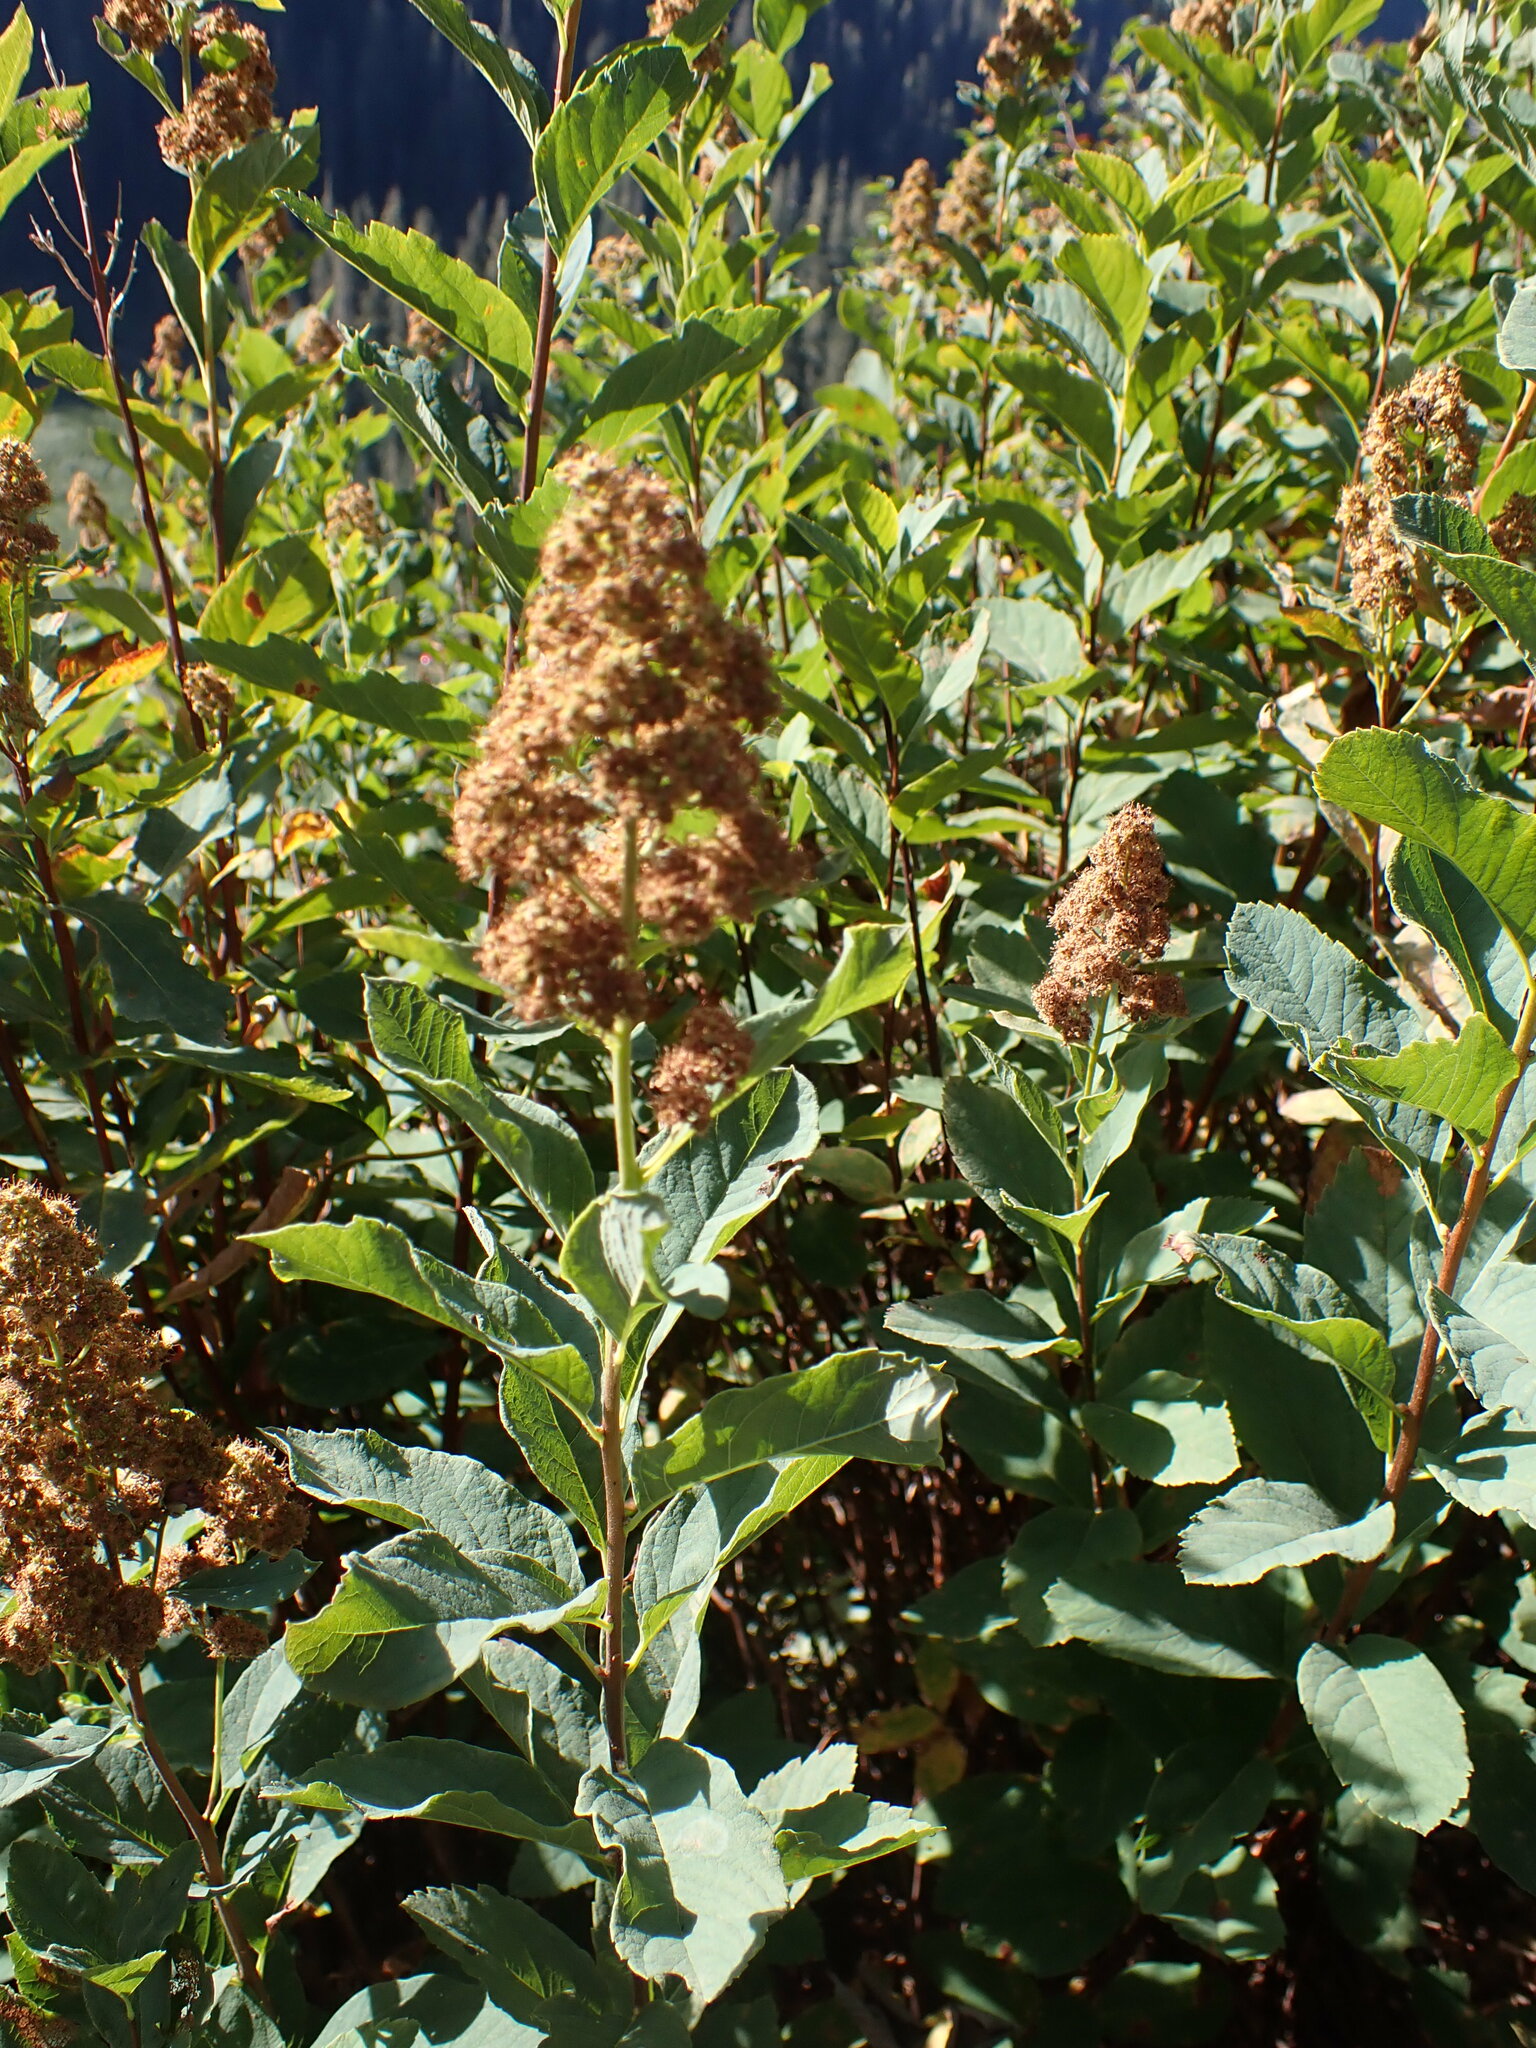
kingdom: Plantae
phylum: Tracheophyta
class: Magnoliopsida
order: Rosales
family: Rosaceae
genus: Spiraea
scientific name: Spiraea douglasii
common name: Steeplebush
